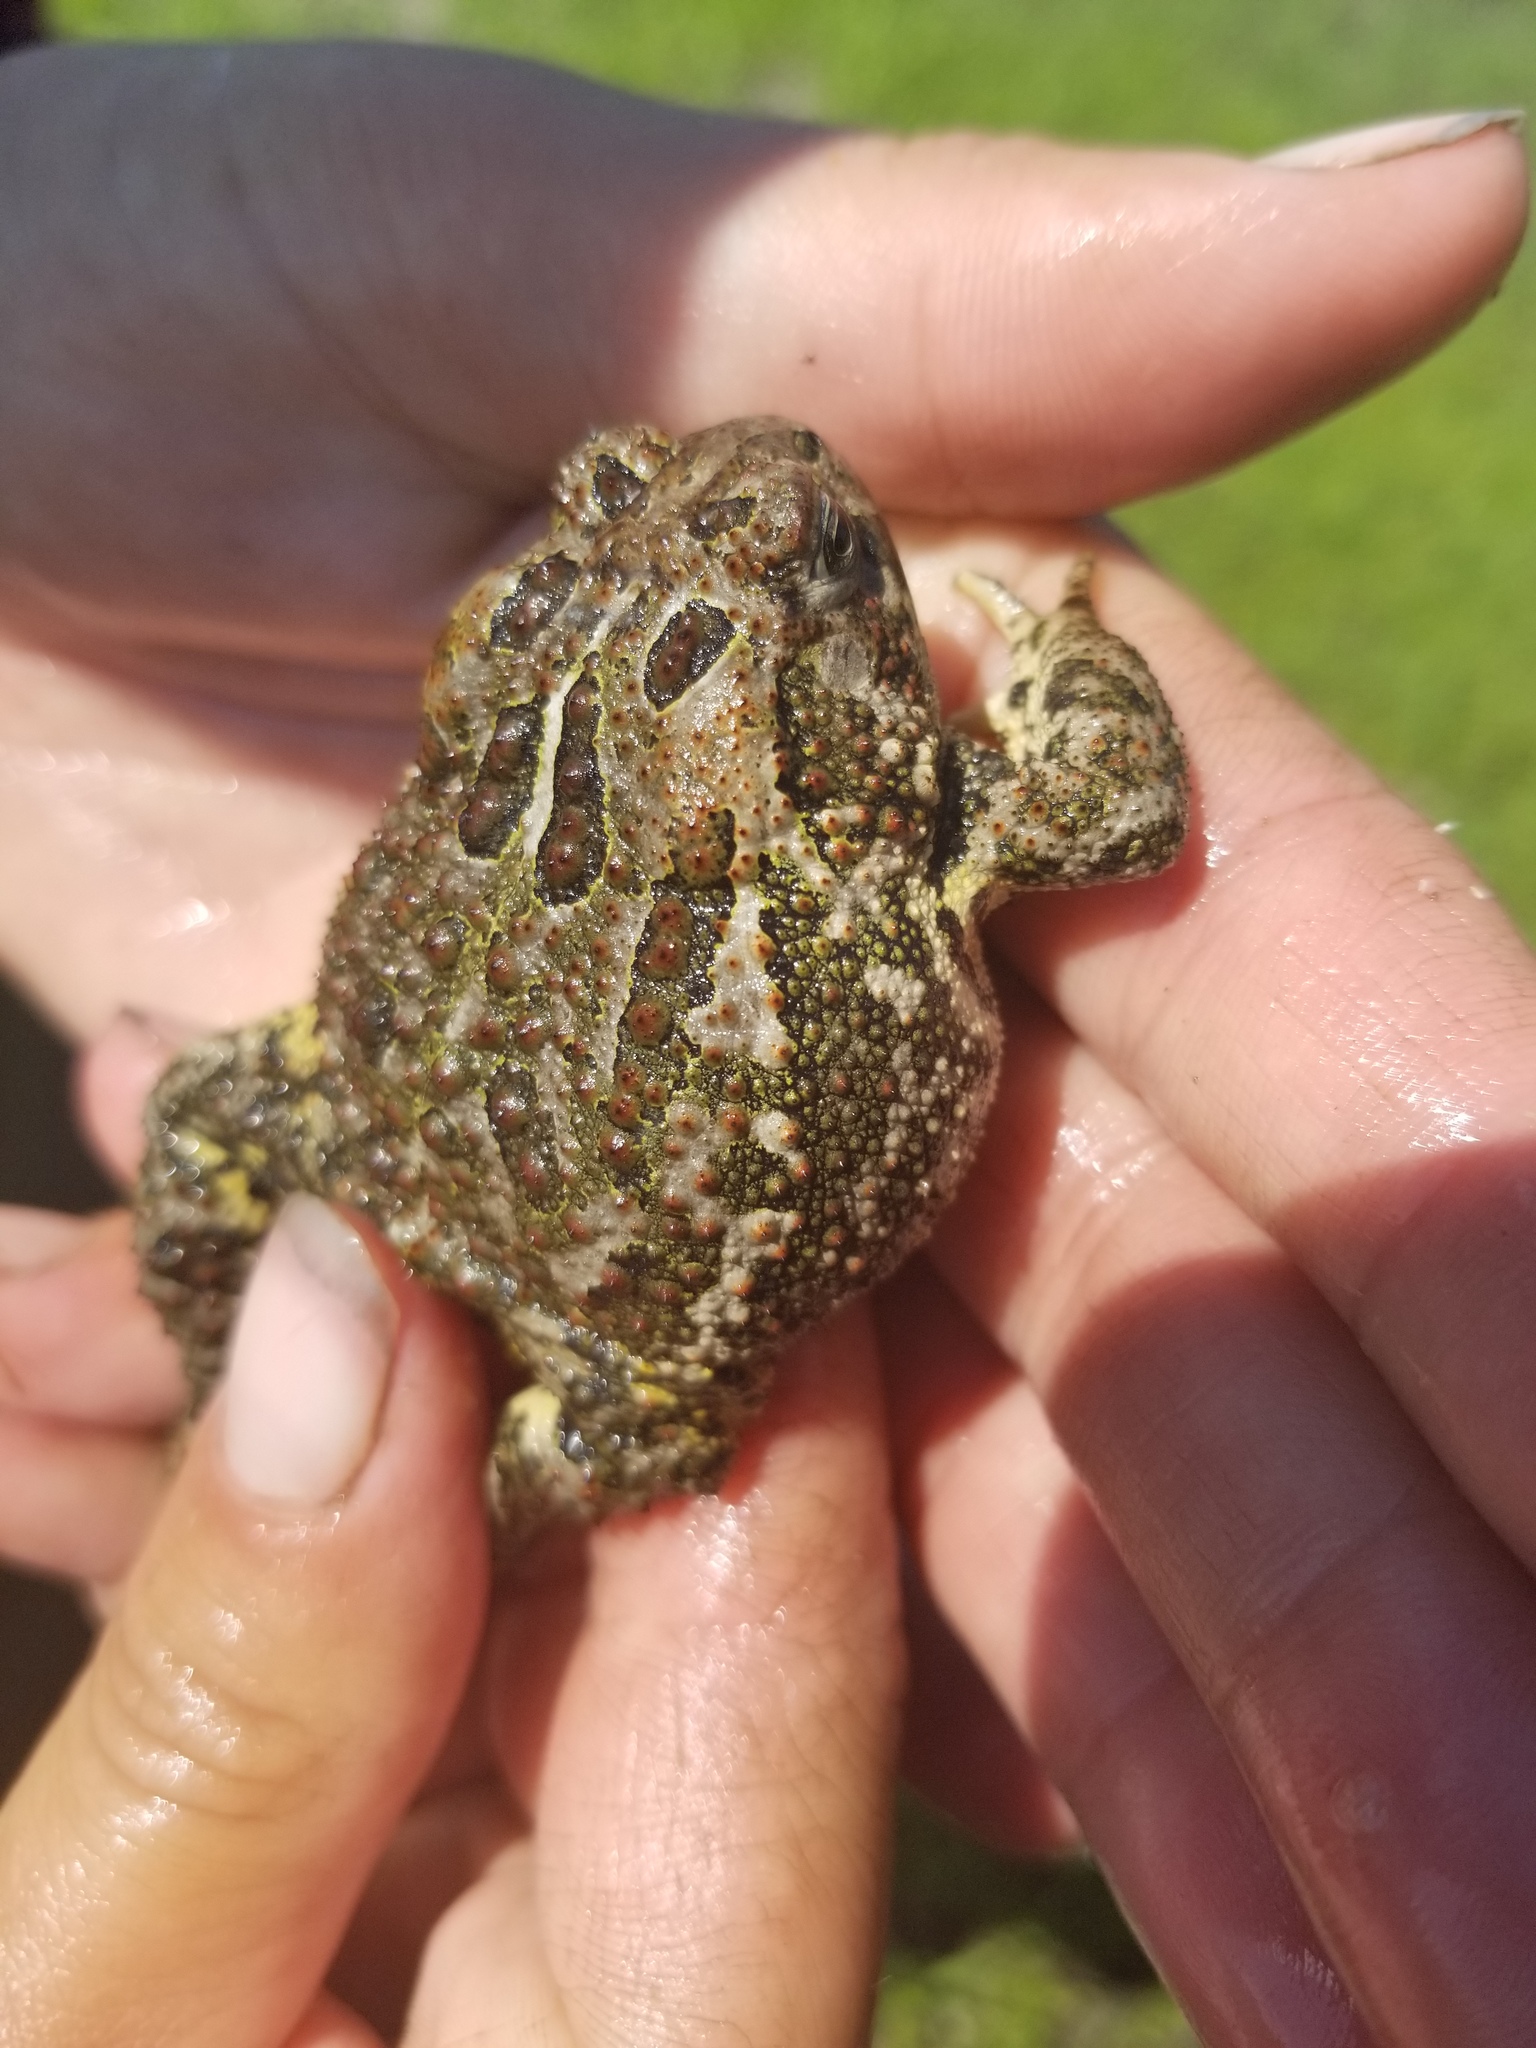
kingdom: Animalia
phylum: Chordata
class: Amphibia
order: Anura
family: Bufonidae
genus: Anaxyrus
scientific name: Anaxyrus hemiophrys
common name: Canadian toad
